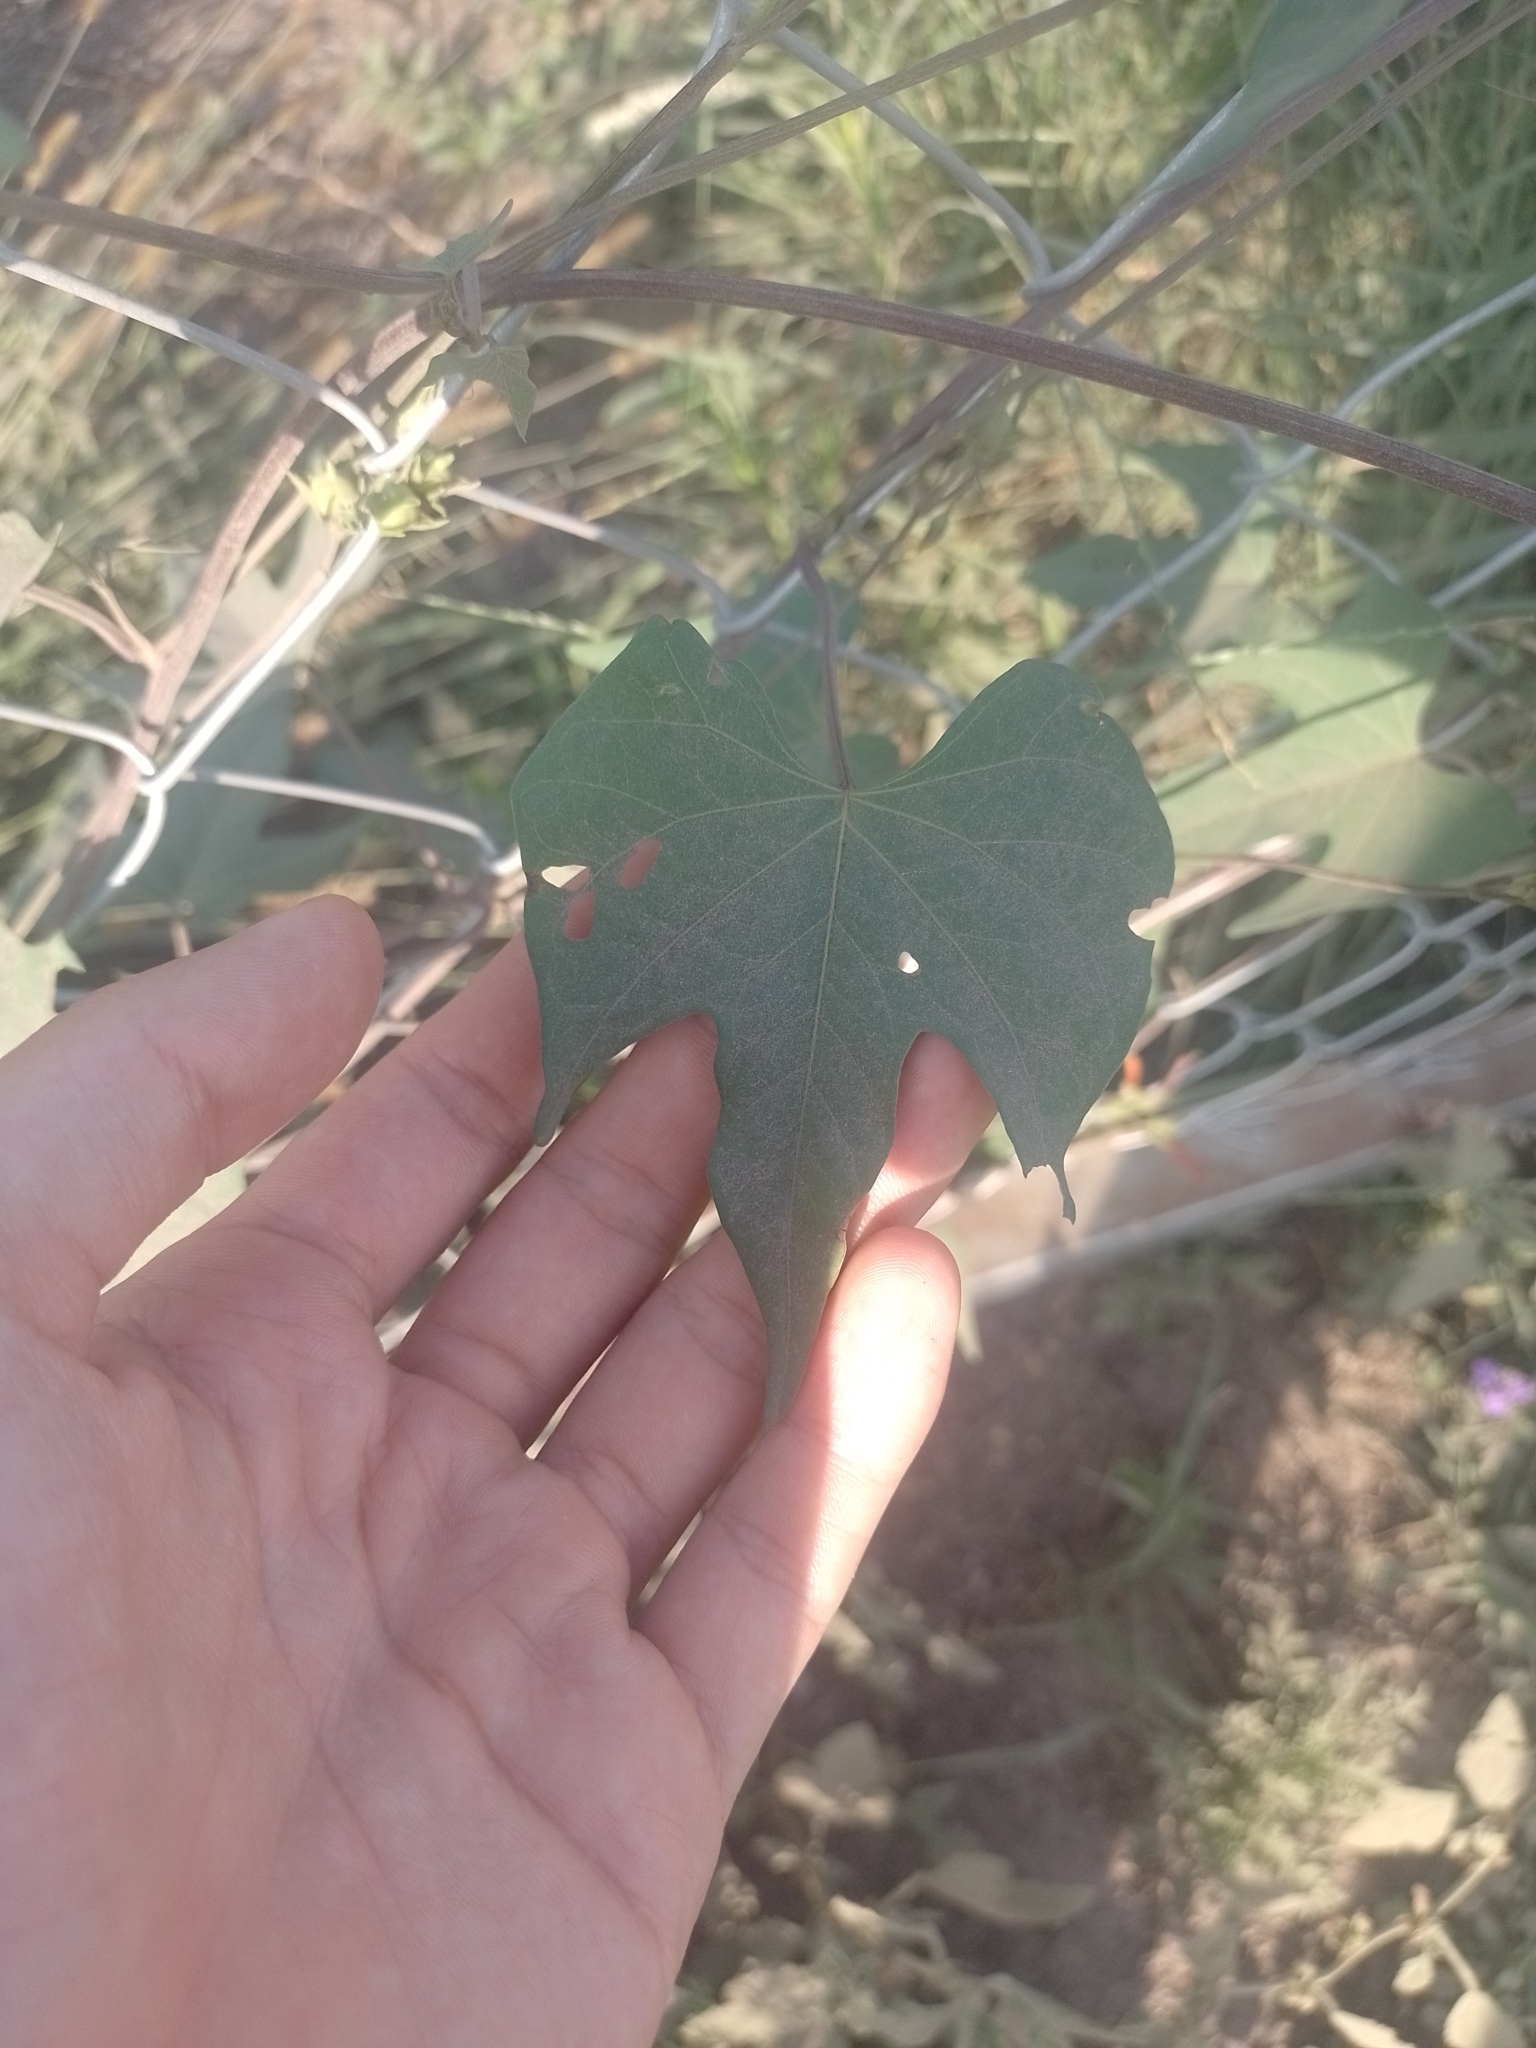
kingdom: Plantae
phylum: Tracheophyta
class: Magnoliopsida
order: Solanales
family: Convolvulaceae
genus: Ipomoea
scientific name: Ipomoea rubriflora
